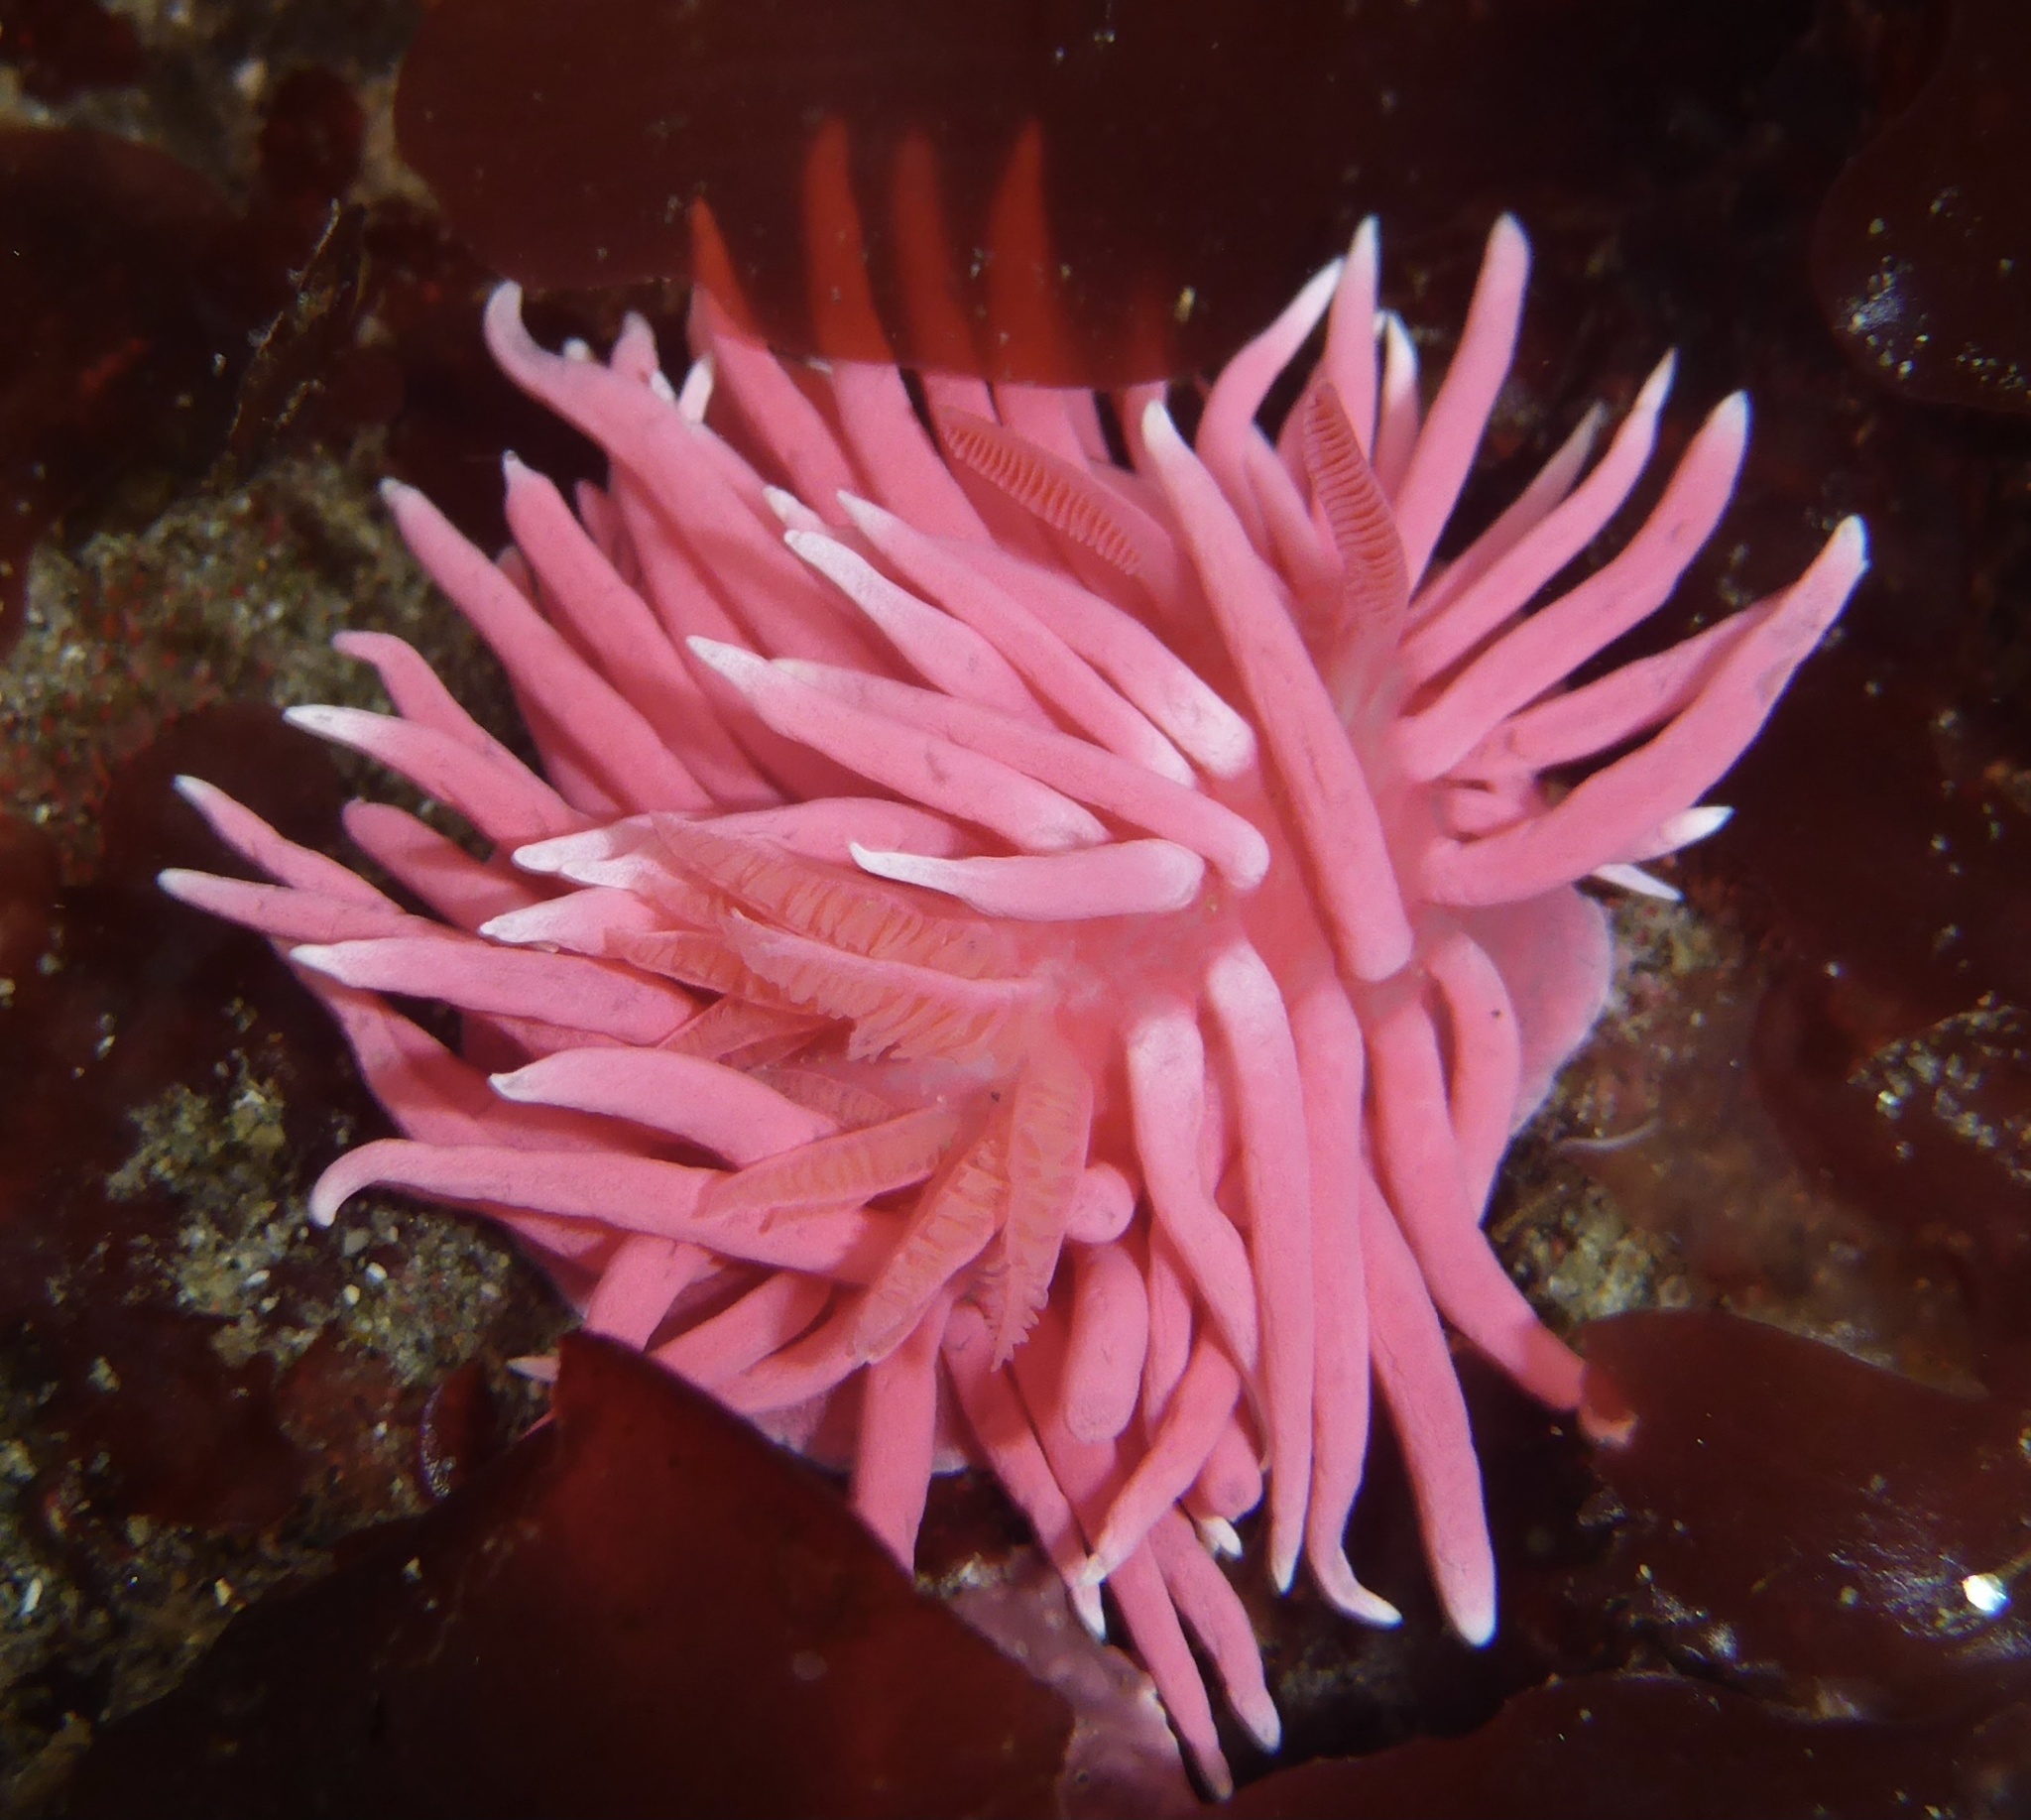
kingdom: Animalia
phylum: Mollusca
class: Gastropoda
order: Nudibranchia
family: Goniodorididae
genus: Okenia
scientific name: Okenia
